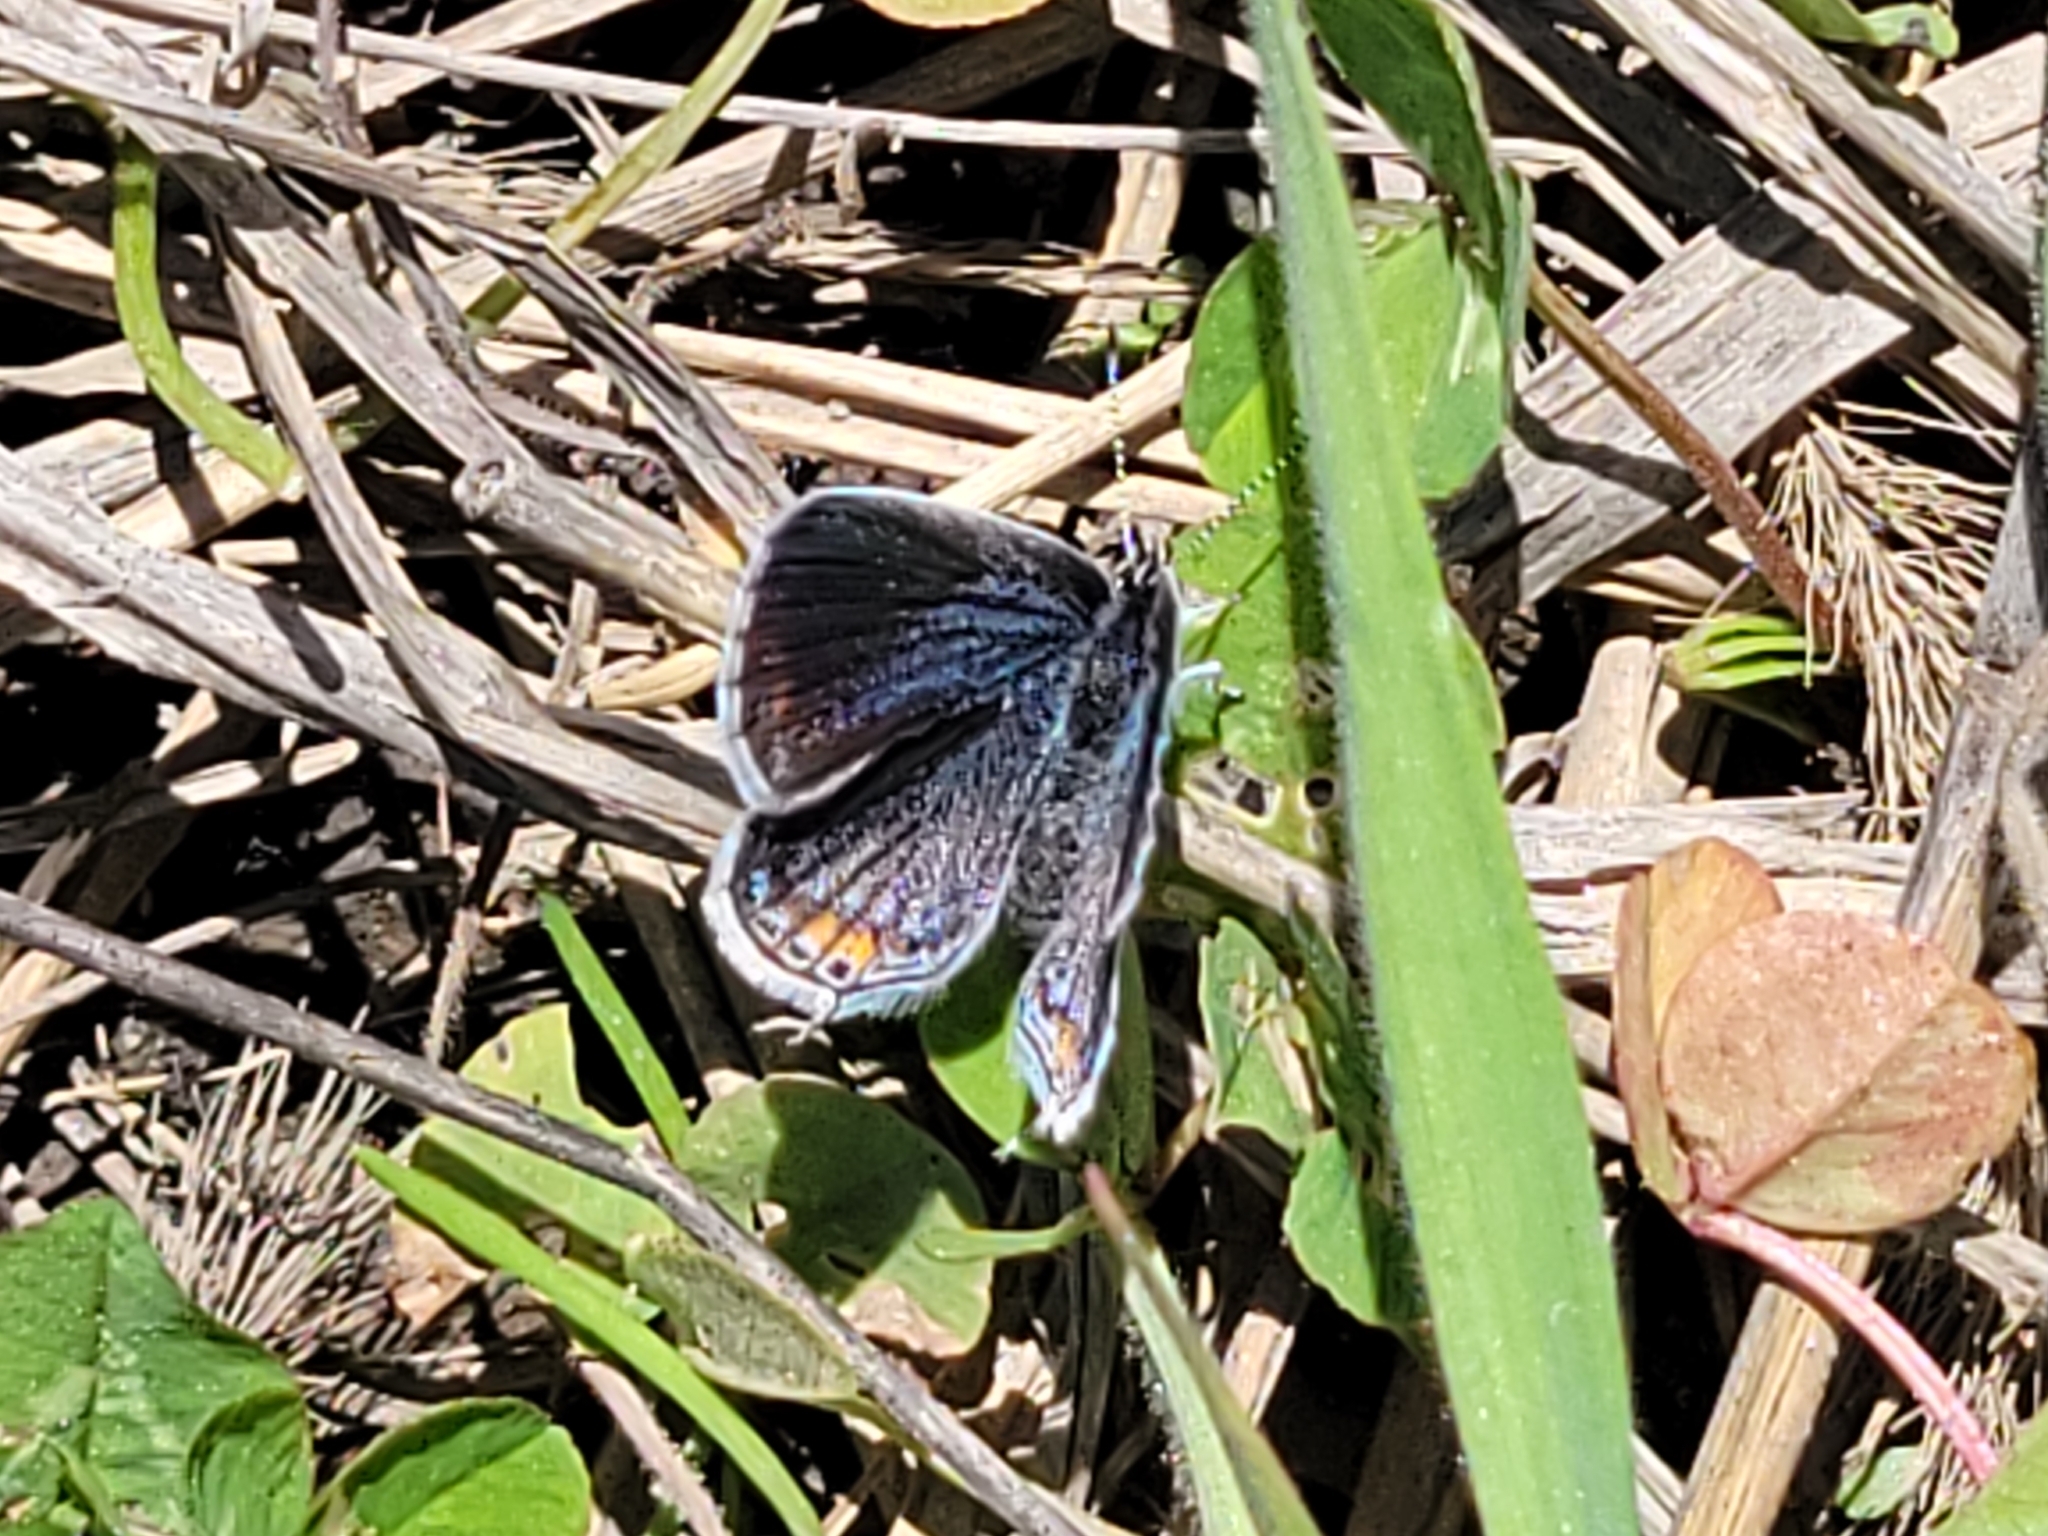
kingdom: Animalia
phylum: Arthropoda
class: Insecta
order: Lepidoptera
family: Lycaenidae
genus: Elkalyce
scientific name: Elkalyce comyntas
